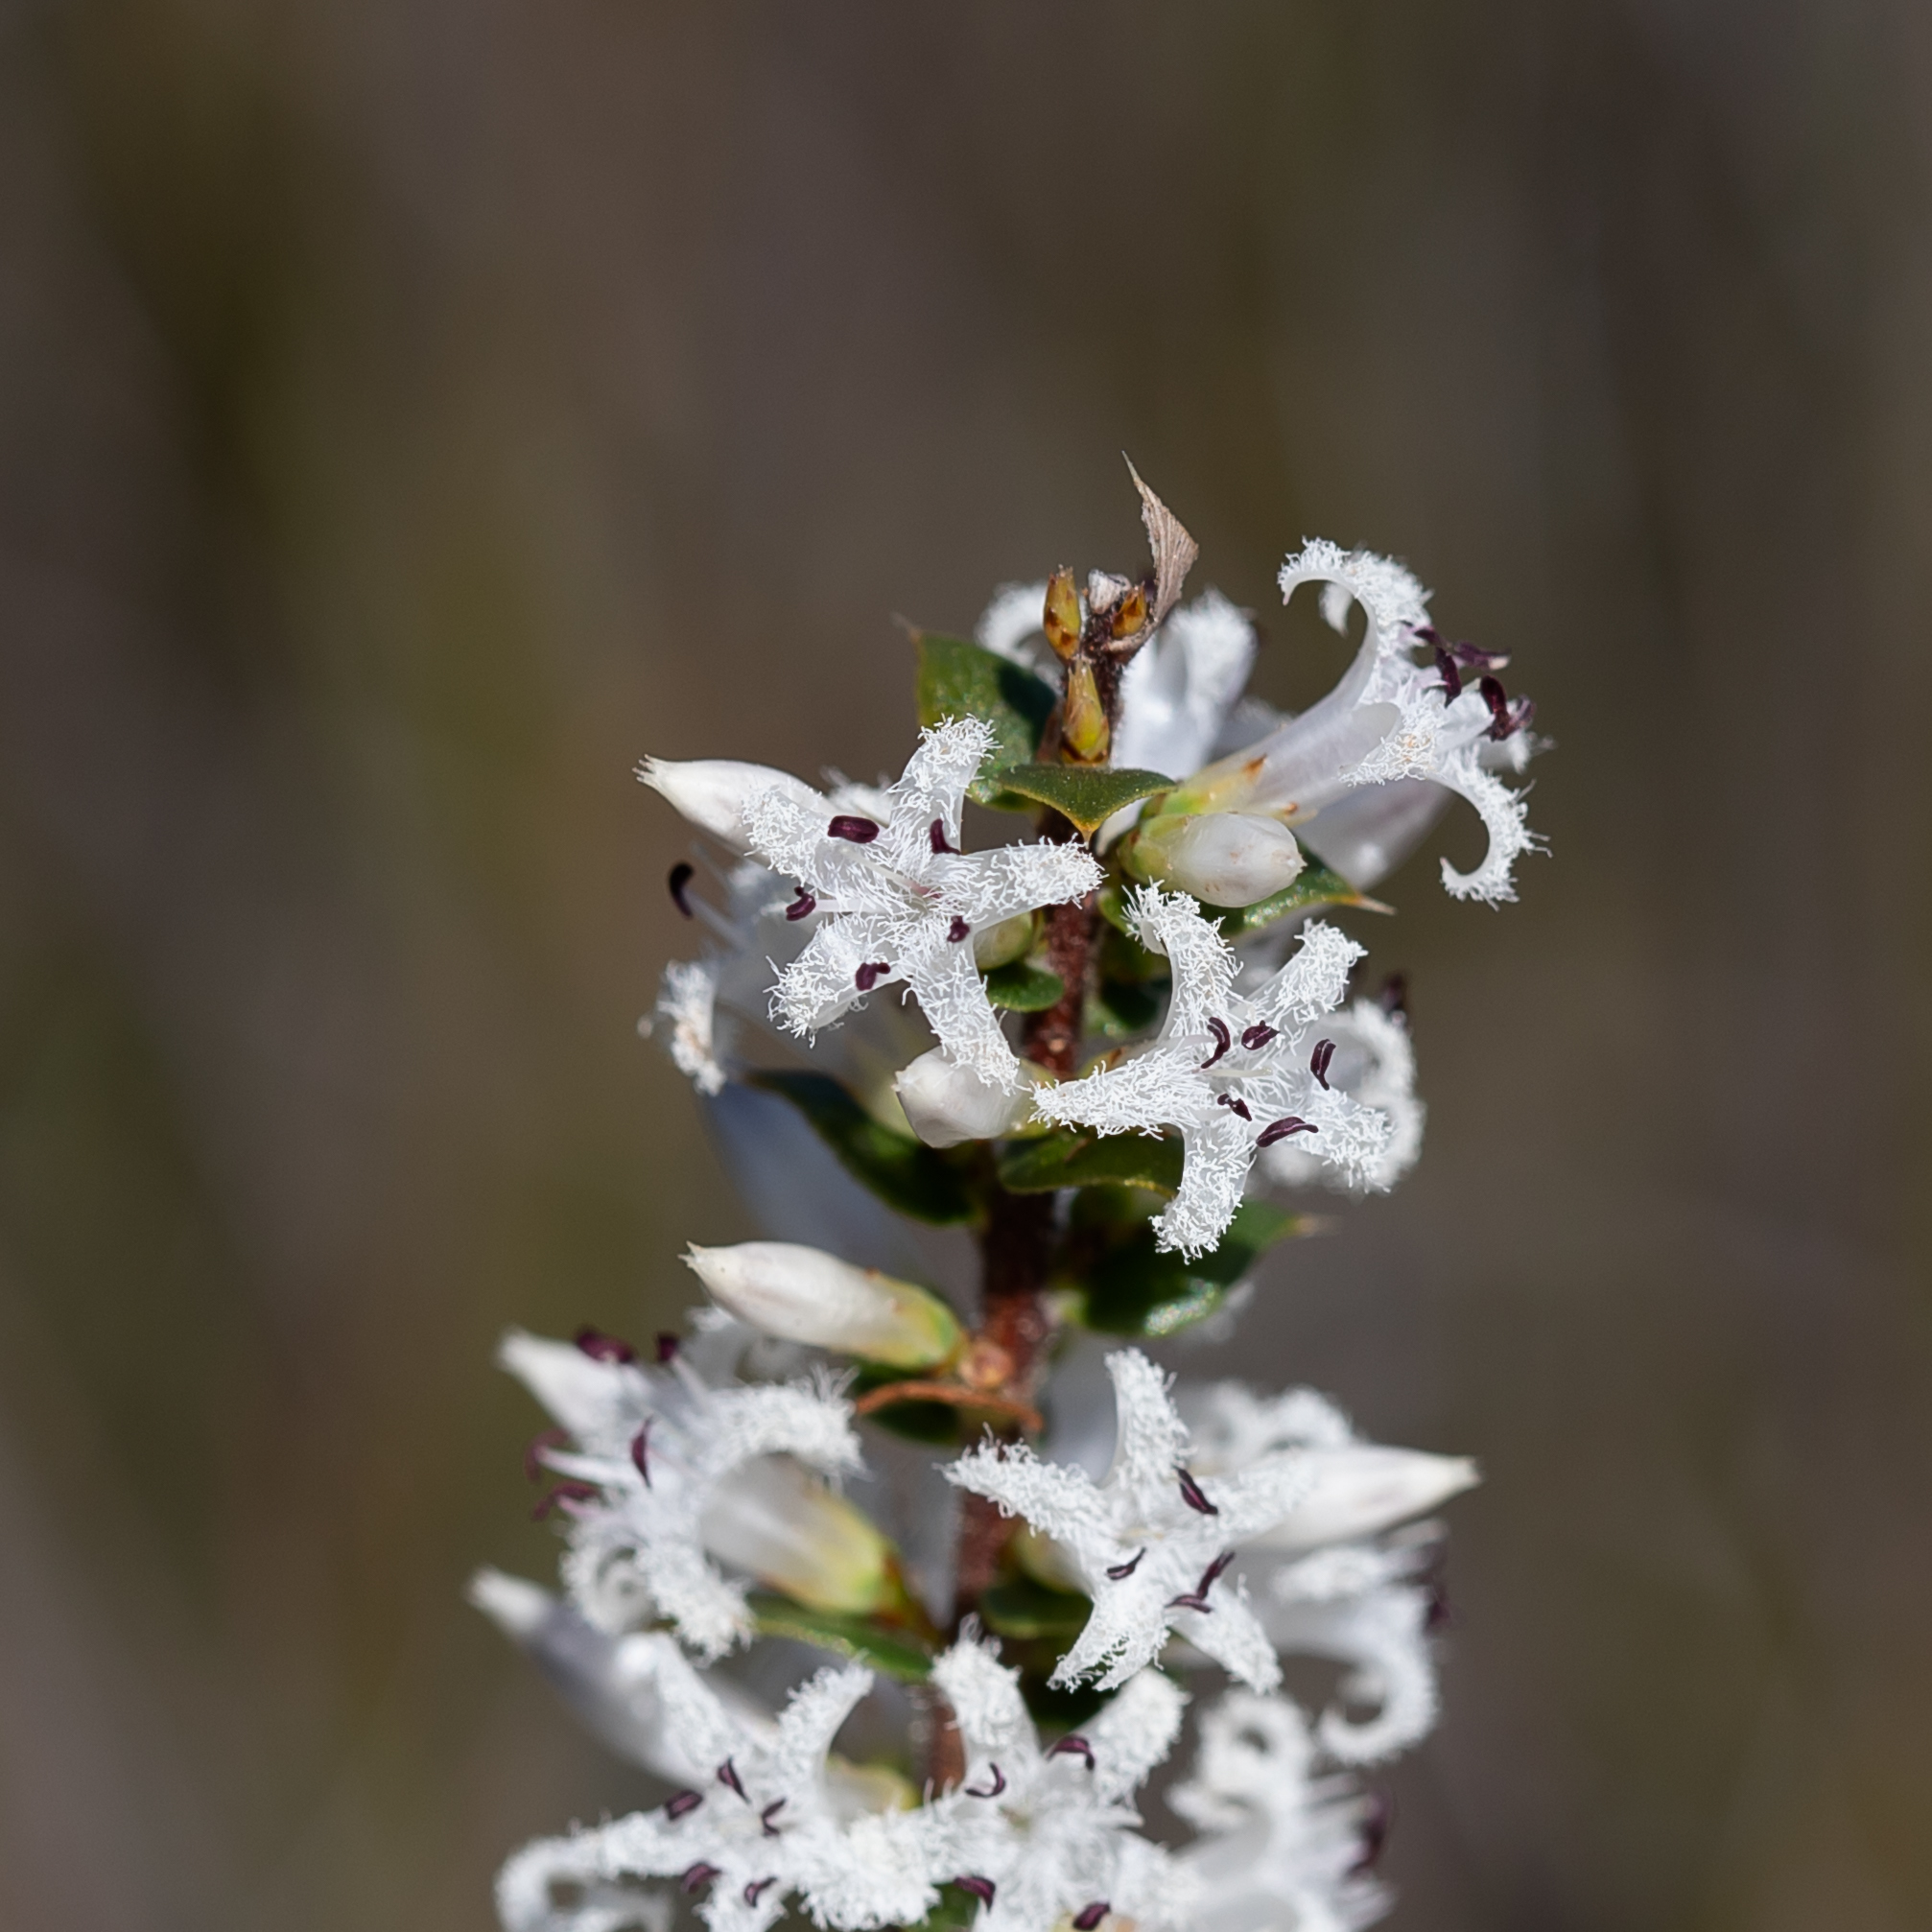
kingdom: Plantae
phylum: Tracheophyta
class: Magnoliopsida
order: Ericales
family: Ericaceae
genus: Styphelia
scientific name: Styphelia exarrhena
